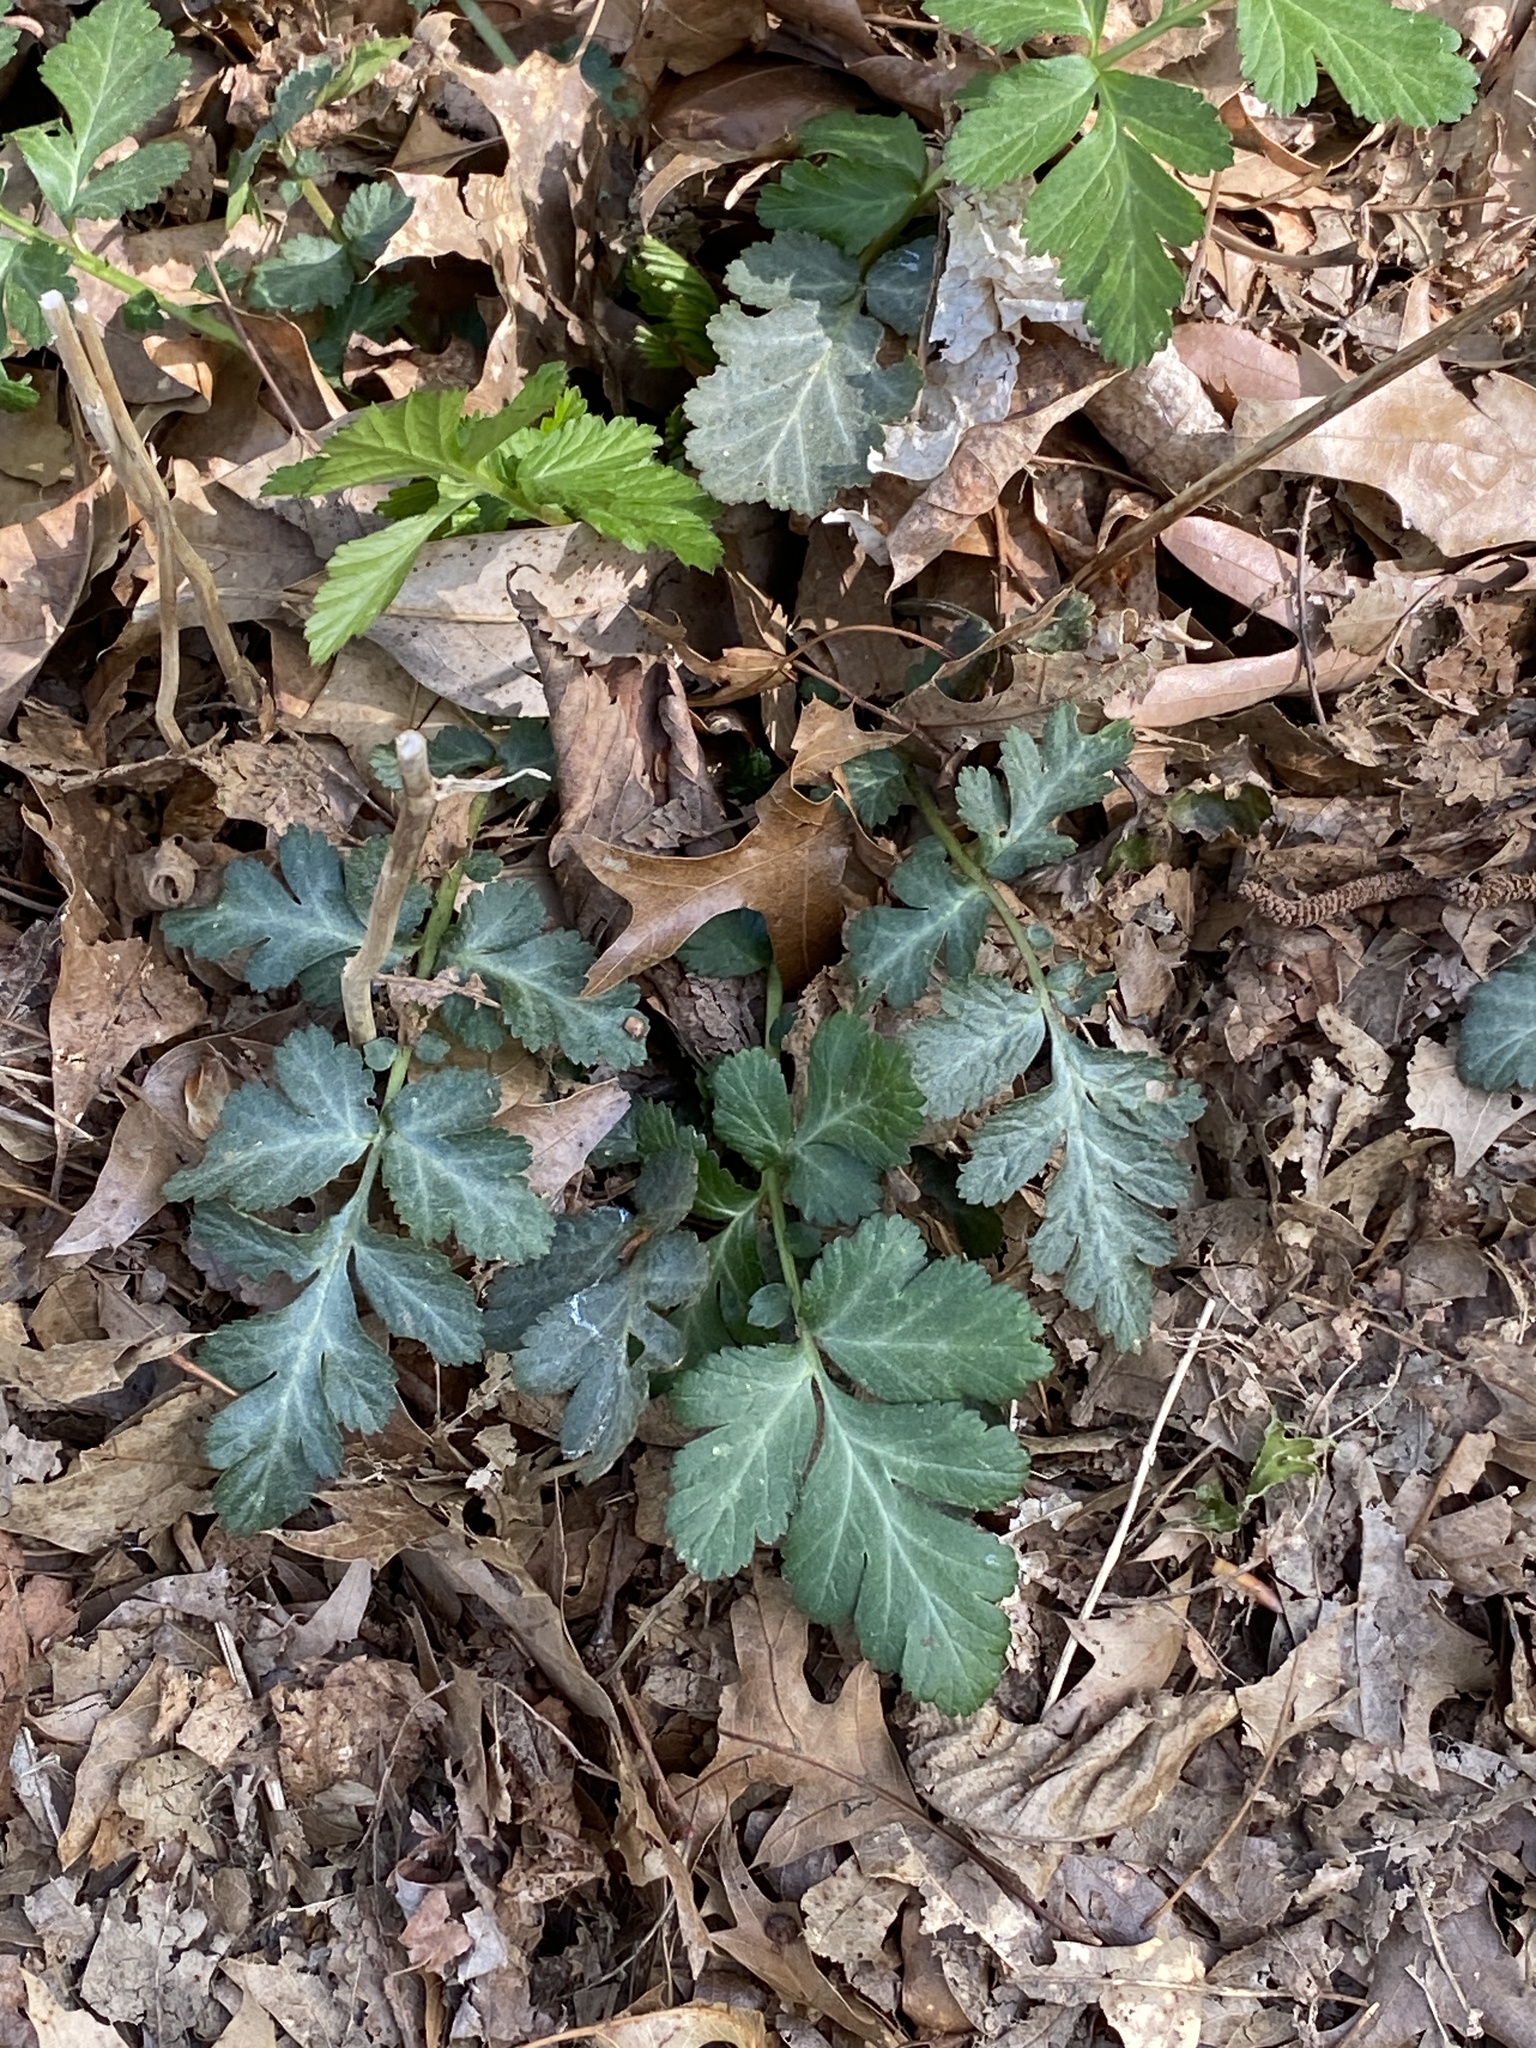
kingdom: Plantae
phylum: Tracheophyta
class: Magnoliopsida
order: Rosales
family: Rosaceae
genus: Geum
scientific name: Geum canadense
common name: White avens
